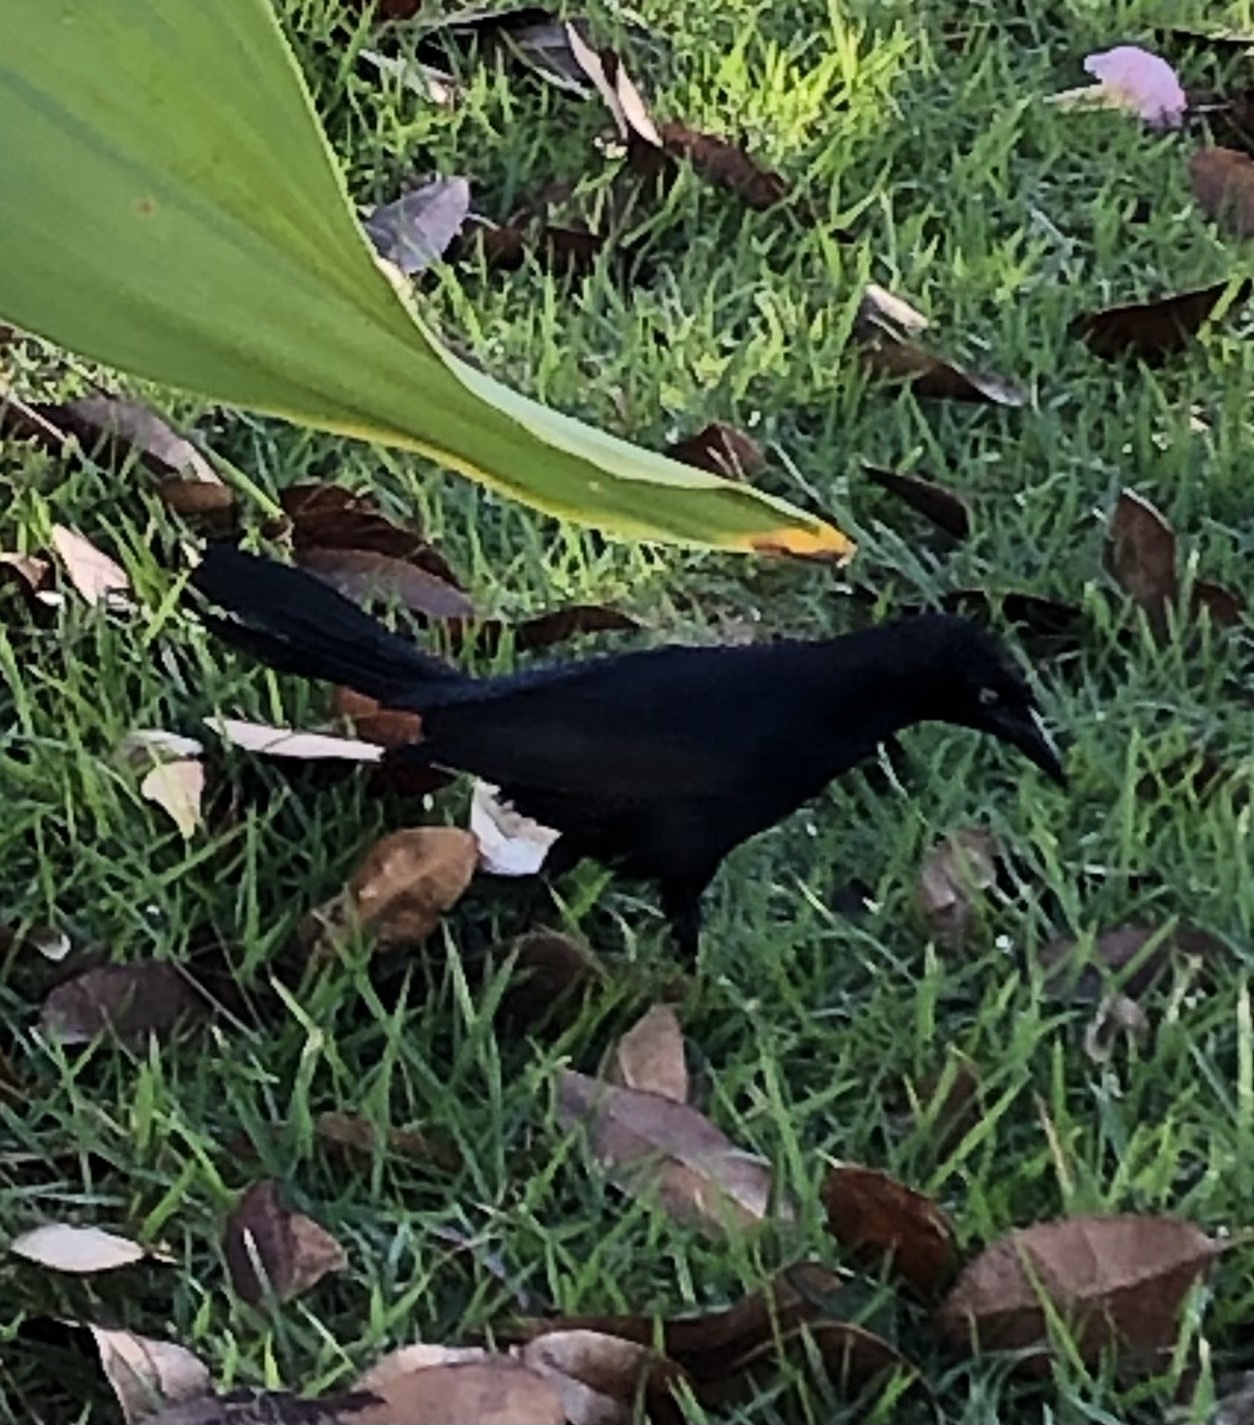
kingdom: Animalia
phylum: Chordata
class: Aves
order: Passeriformes
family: Icteridae
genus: Quiscalus
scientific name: Quiscalus niger
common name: Greater antillean grackle
